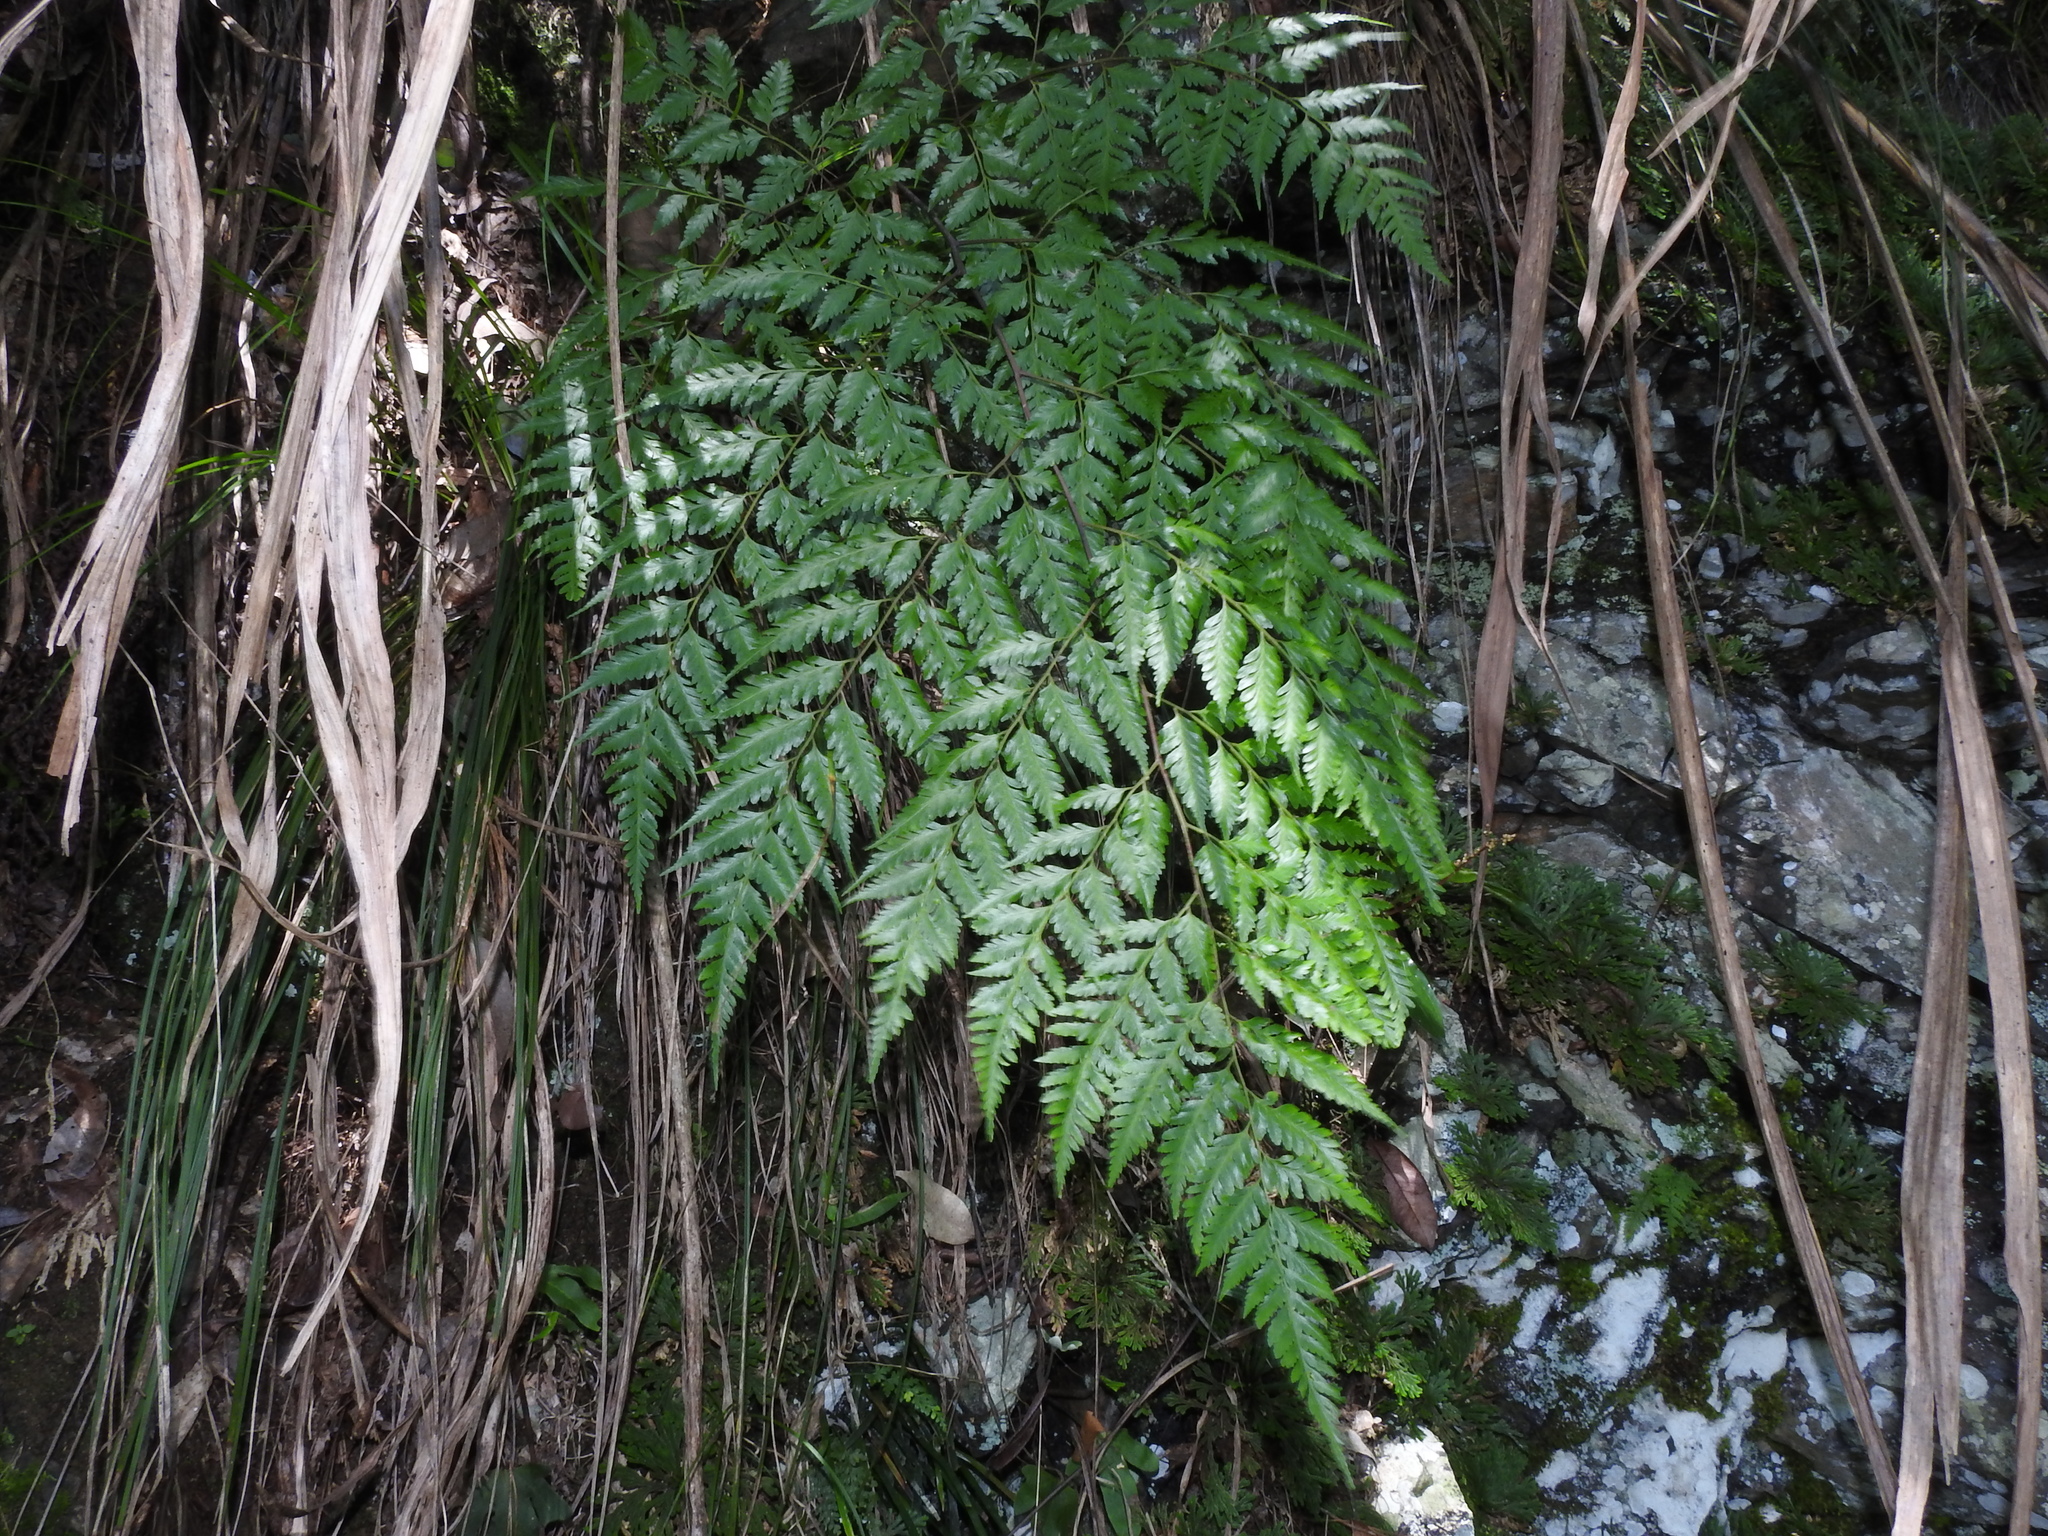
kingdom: Plantae
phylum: Tracheophyta
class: Polypodiopsida
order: Polypodiales
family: Davalliaceae
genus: Davallia
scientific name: Davallia divaricata
